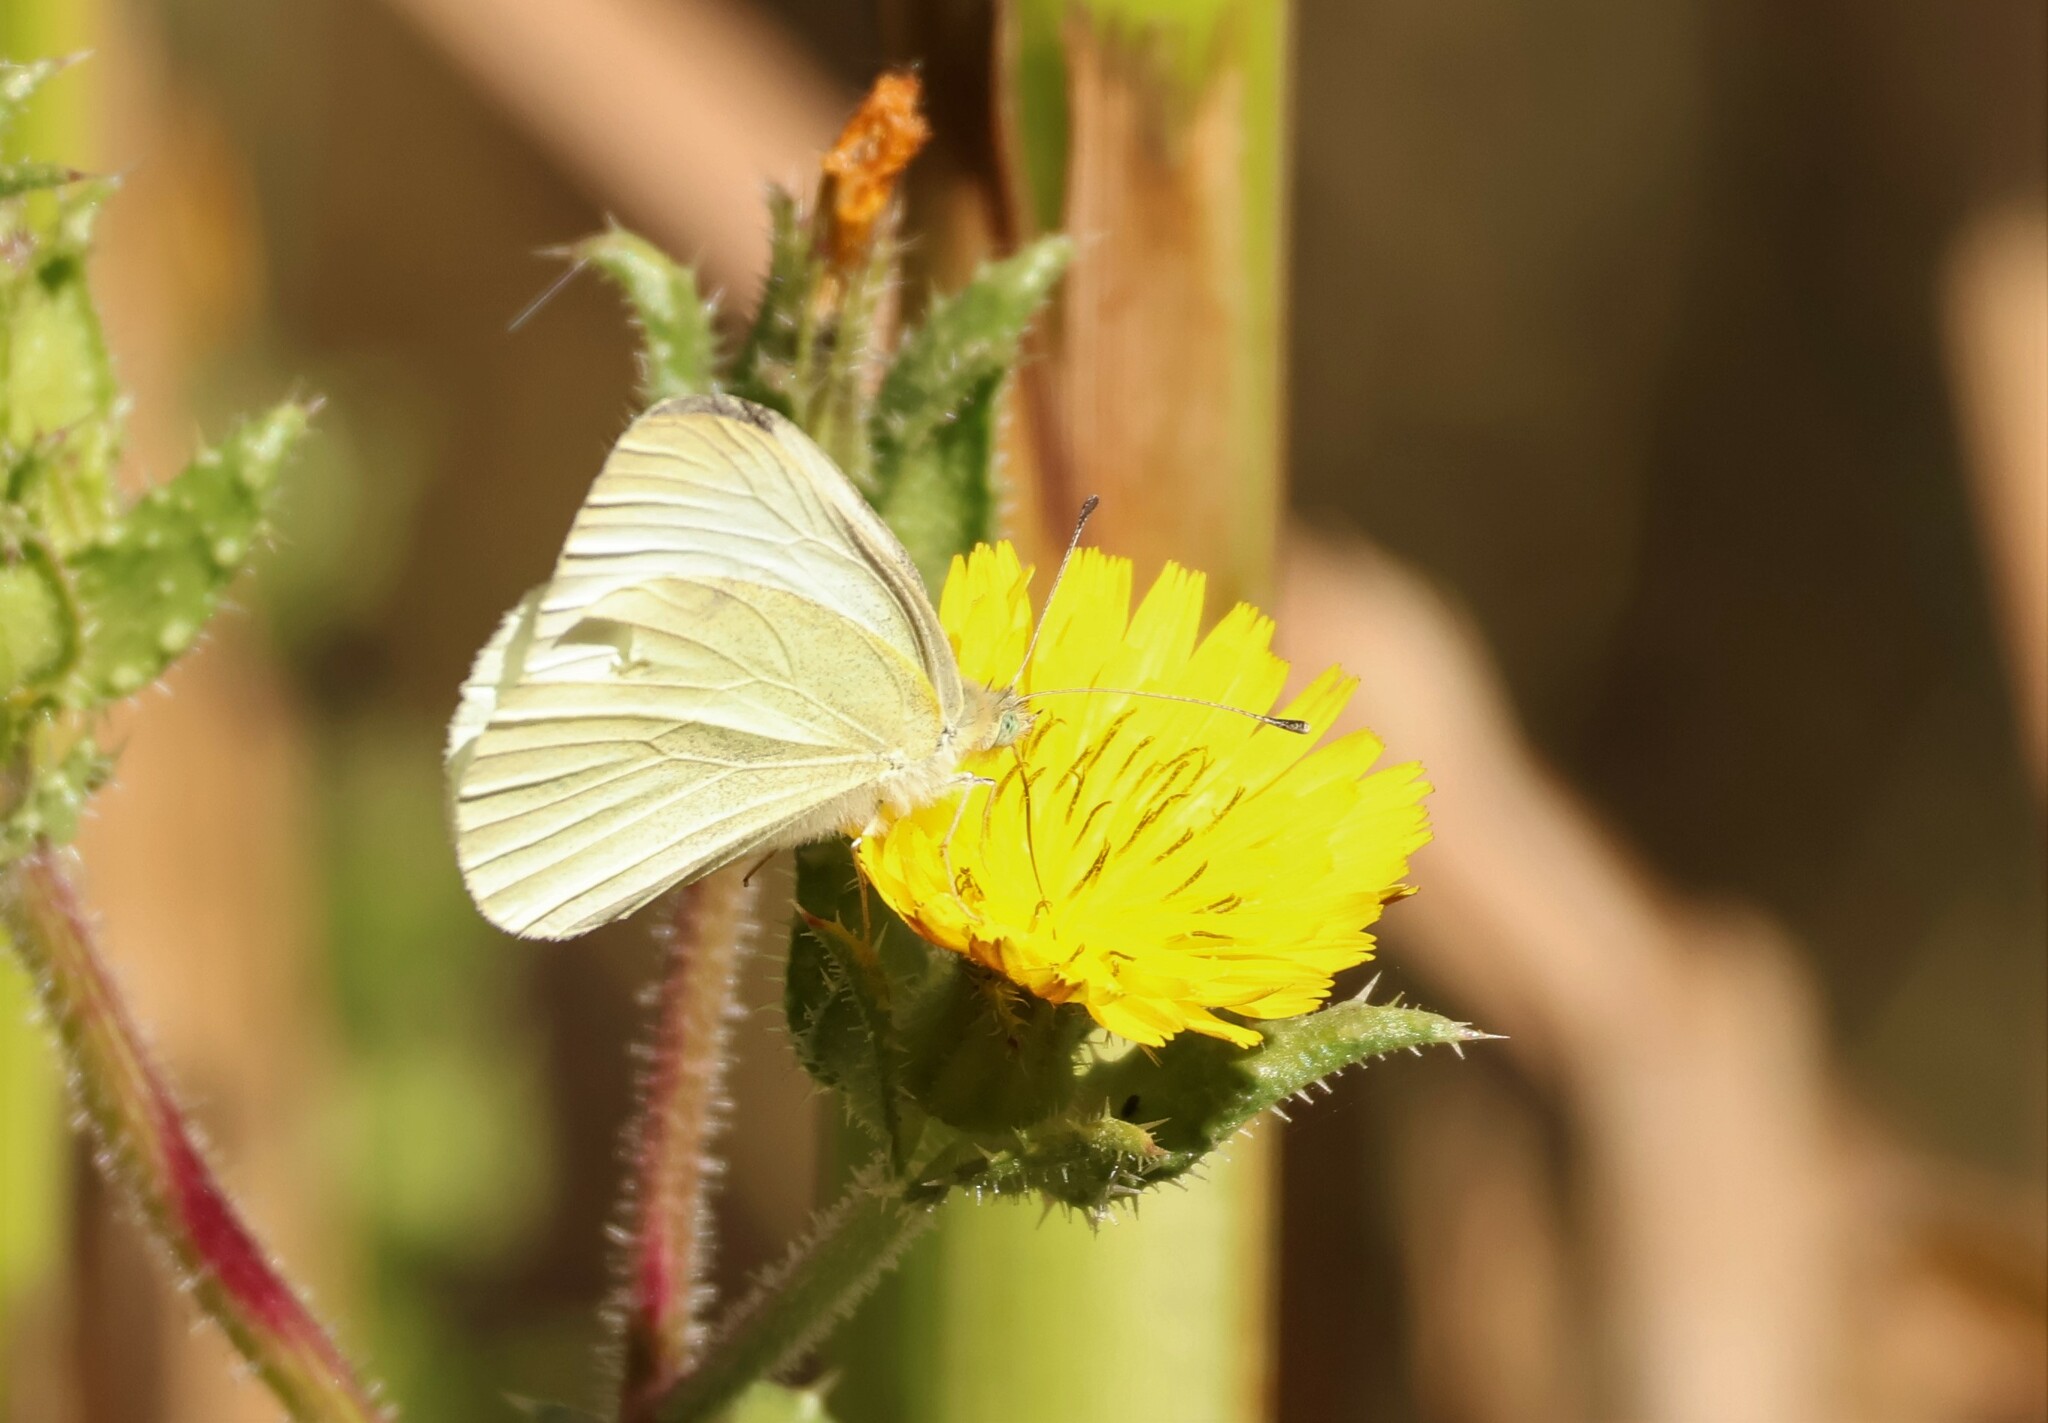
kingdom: Animalia
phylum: Arthropoda
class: Insecta
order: Lepidoptera
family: Pieridae
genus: Pieris
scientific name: Pieris rapae
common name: Small white
